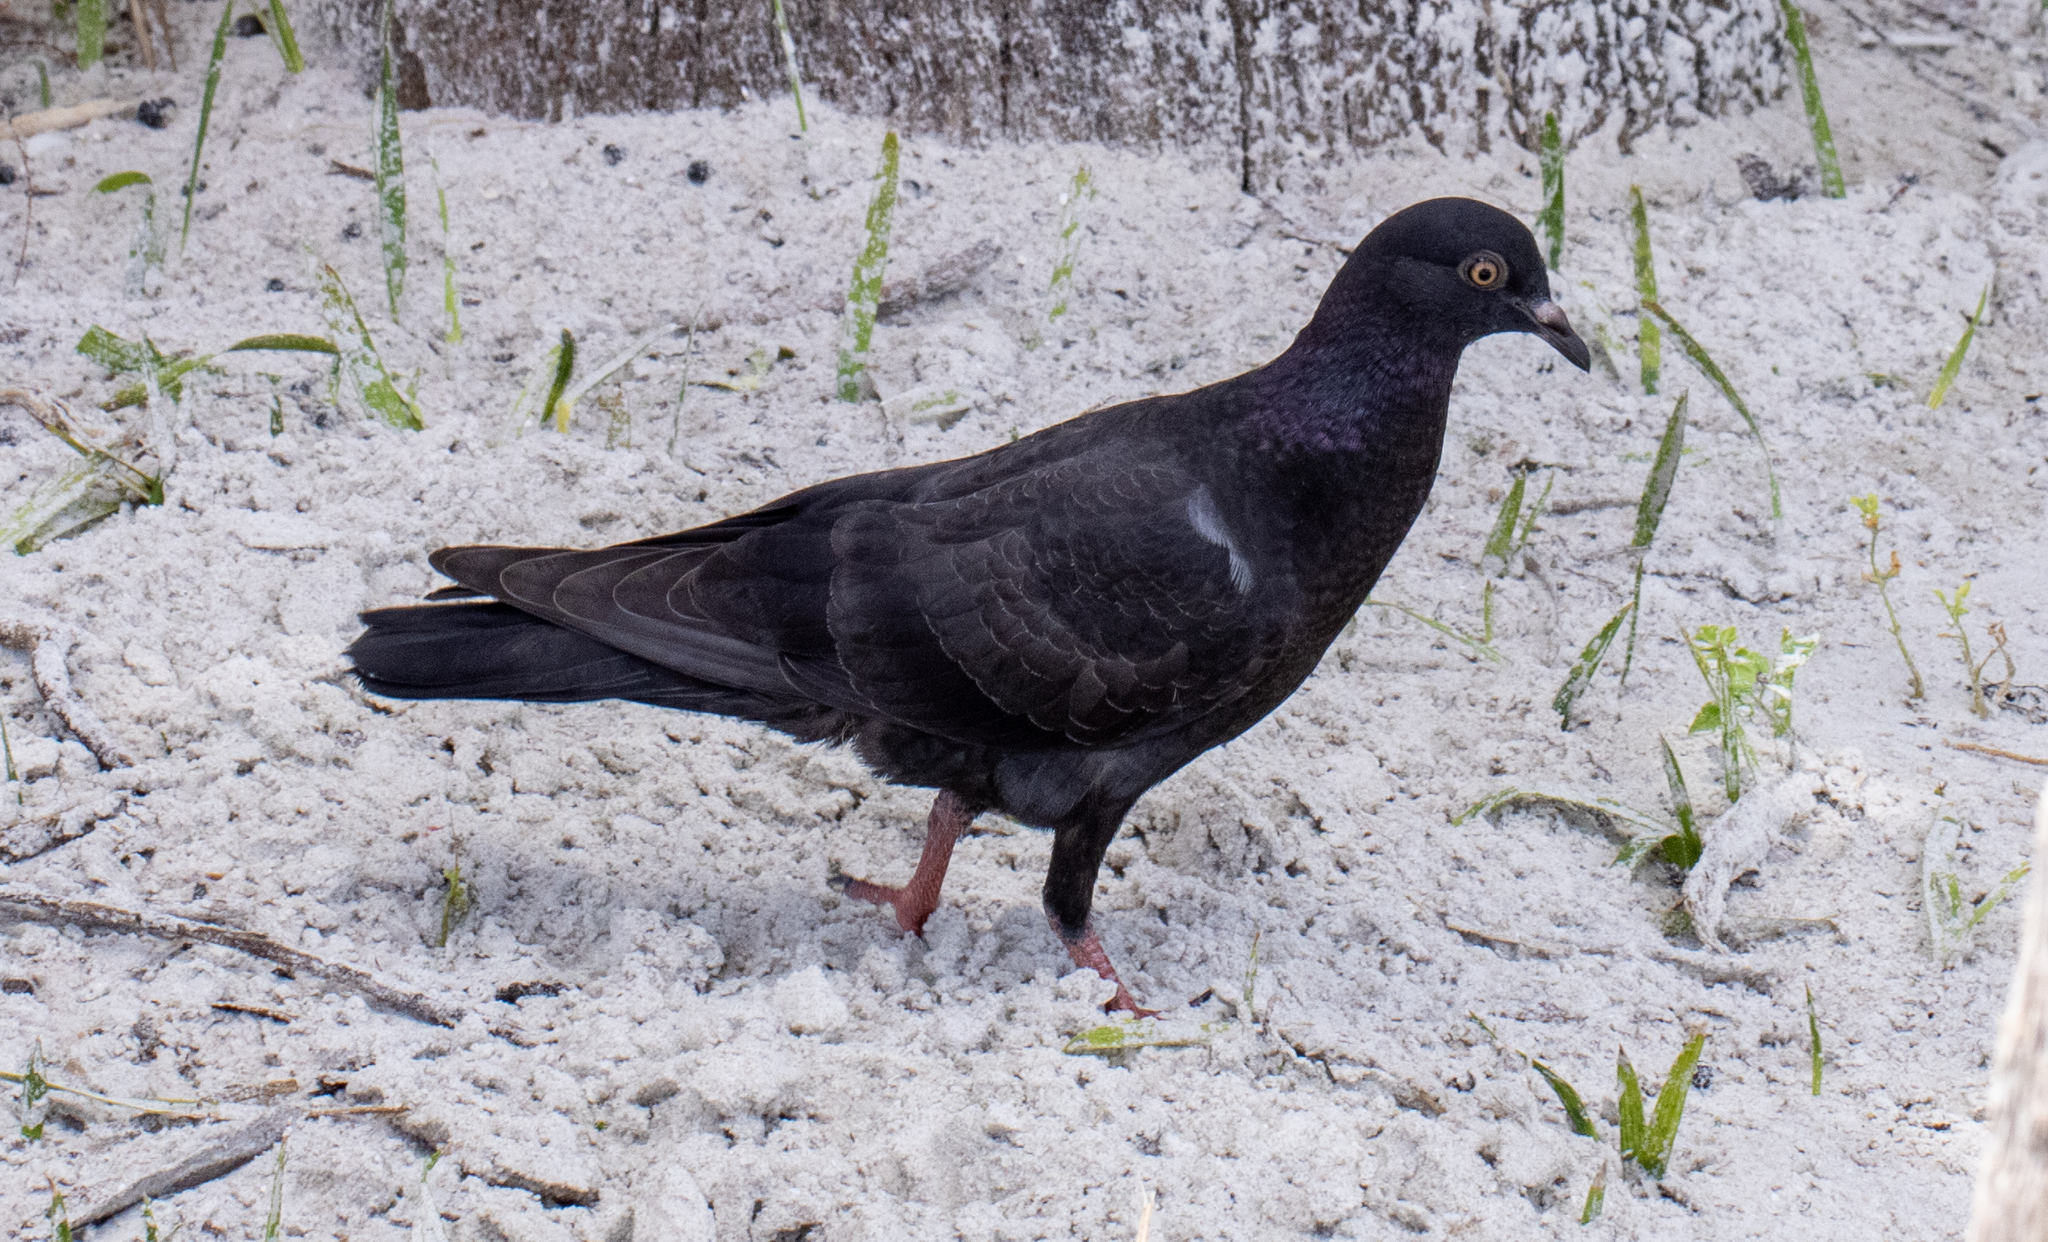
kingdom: Animalia
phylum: Chordata
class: Aves
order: Columbiformes
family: Columbidae
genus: Columba
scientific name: Columba livia
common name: Rock pigeon
